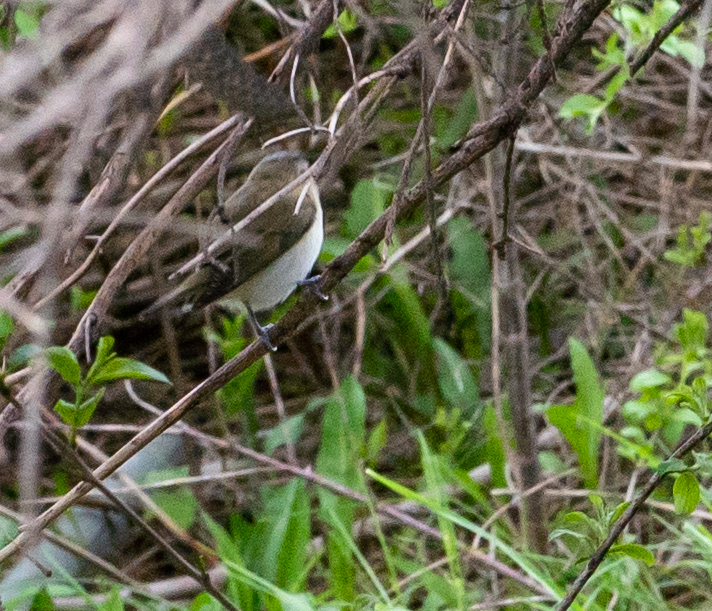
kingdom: Animalia
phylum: Chordata
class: Aves
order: Passeriformes
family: Vireonidae
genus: Vireo
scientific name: Vireo olivaceus
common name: Red-eyed vireo
